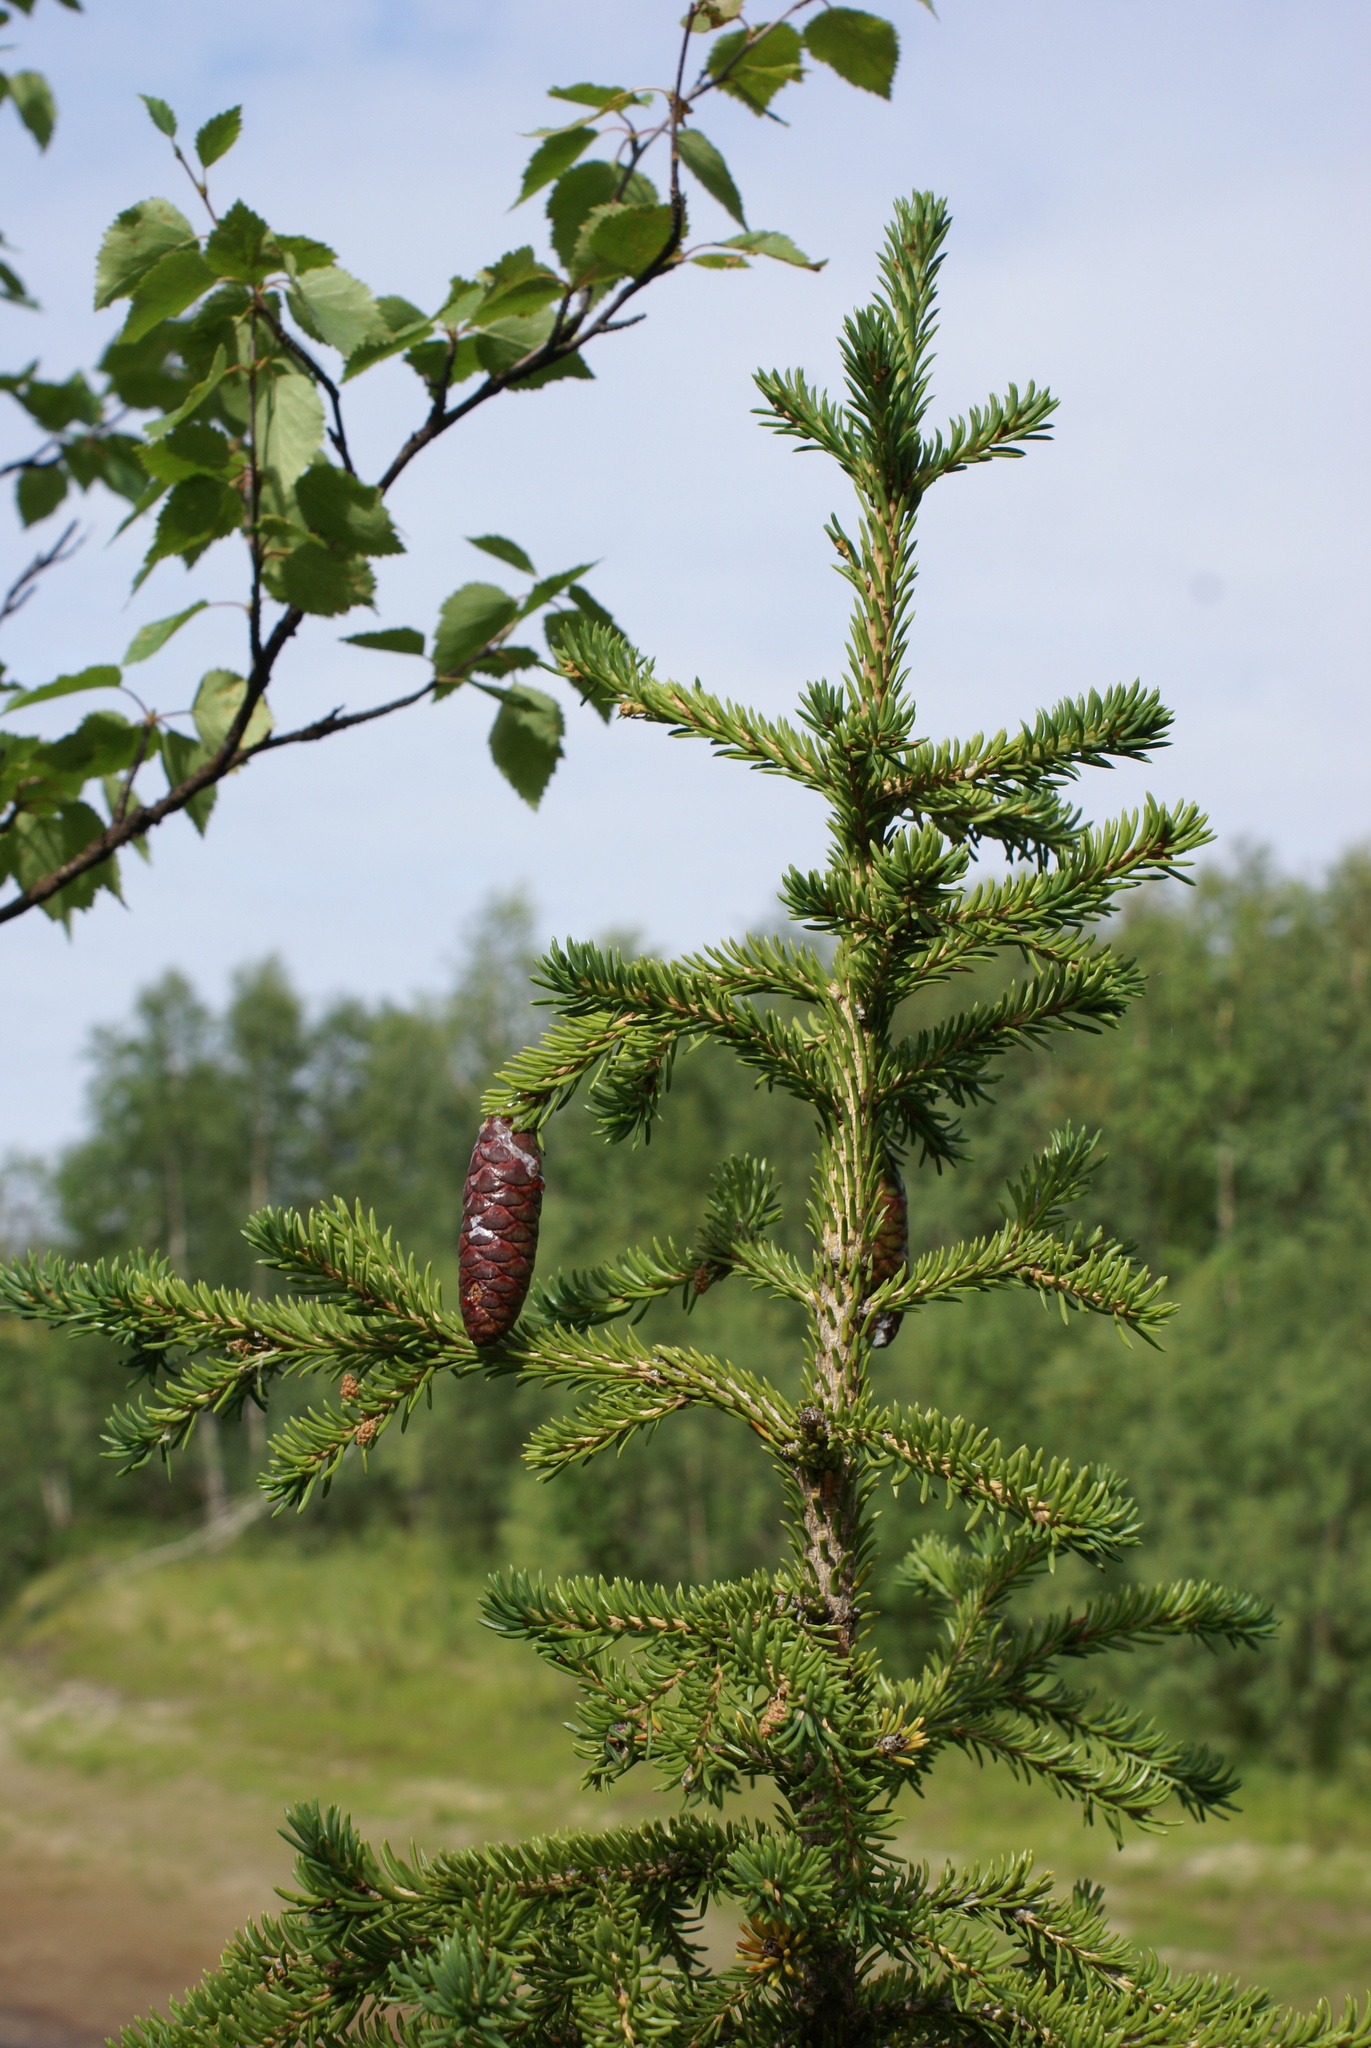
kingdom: Plantae
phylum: Tracheophyta
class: Pinopsida
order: Pinales
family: Pinaceae
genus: Picea
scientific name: Picea obovata
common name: Siberian spruce
